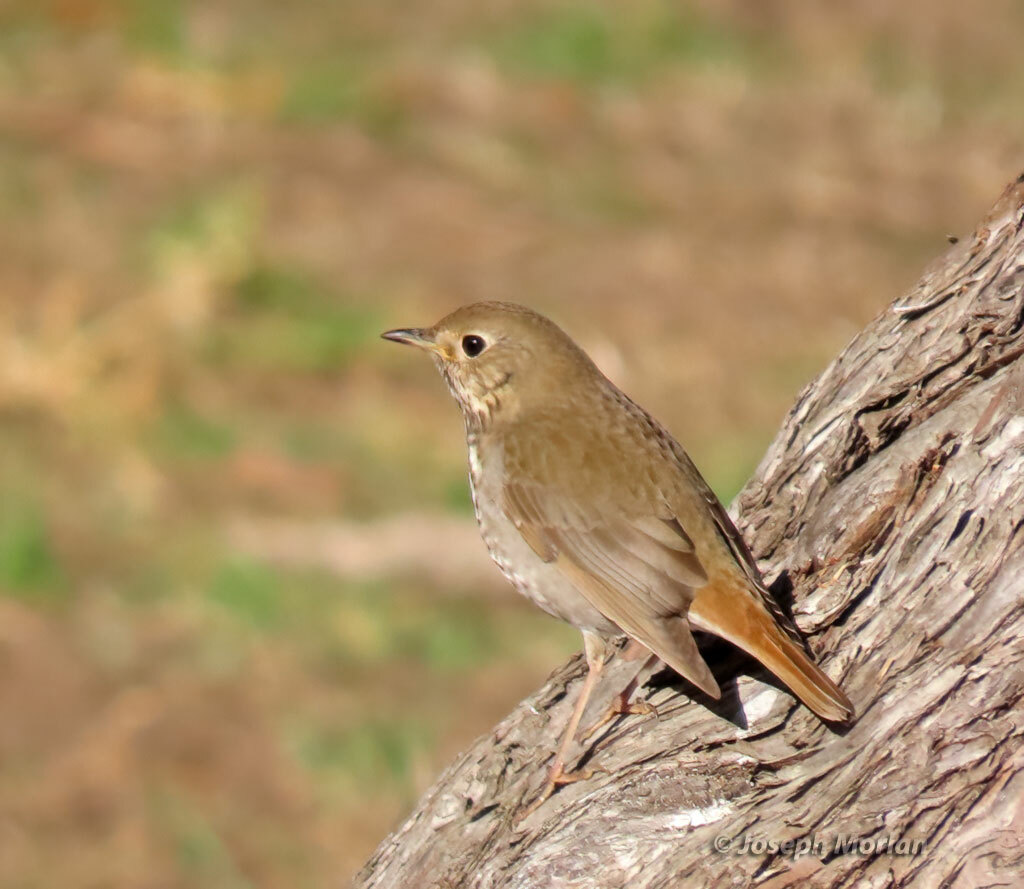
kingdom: Animalia
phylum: Chordata
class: Aves
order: Passeriformes
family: Turdidae
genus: Catharus
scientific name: Catharus guttatus
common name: Hermit thrush
